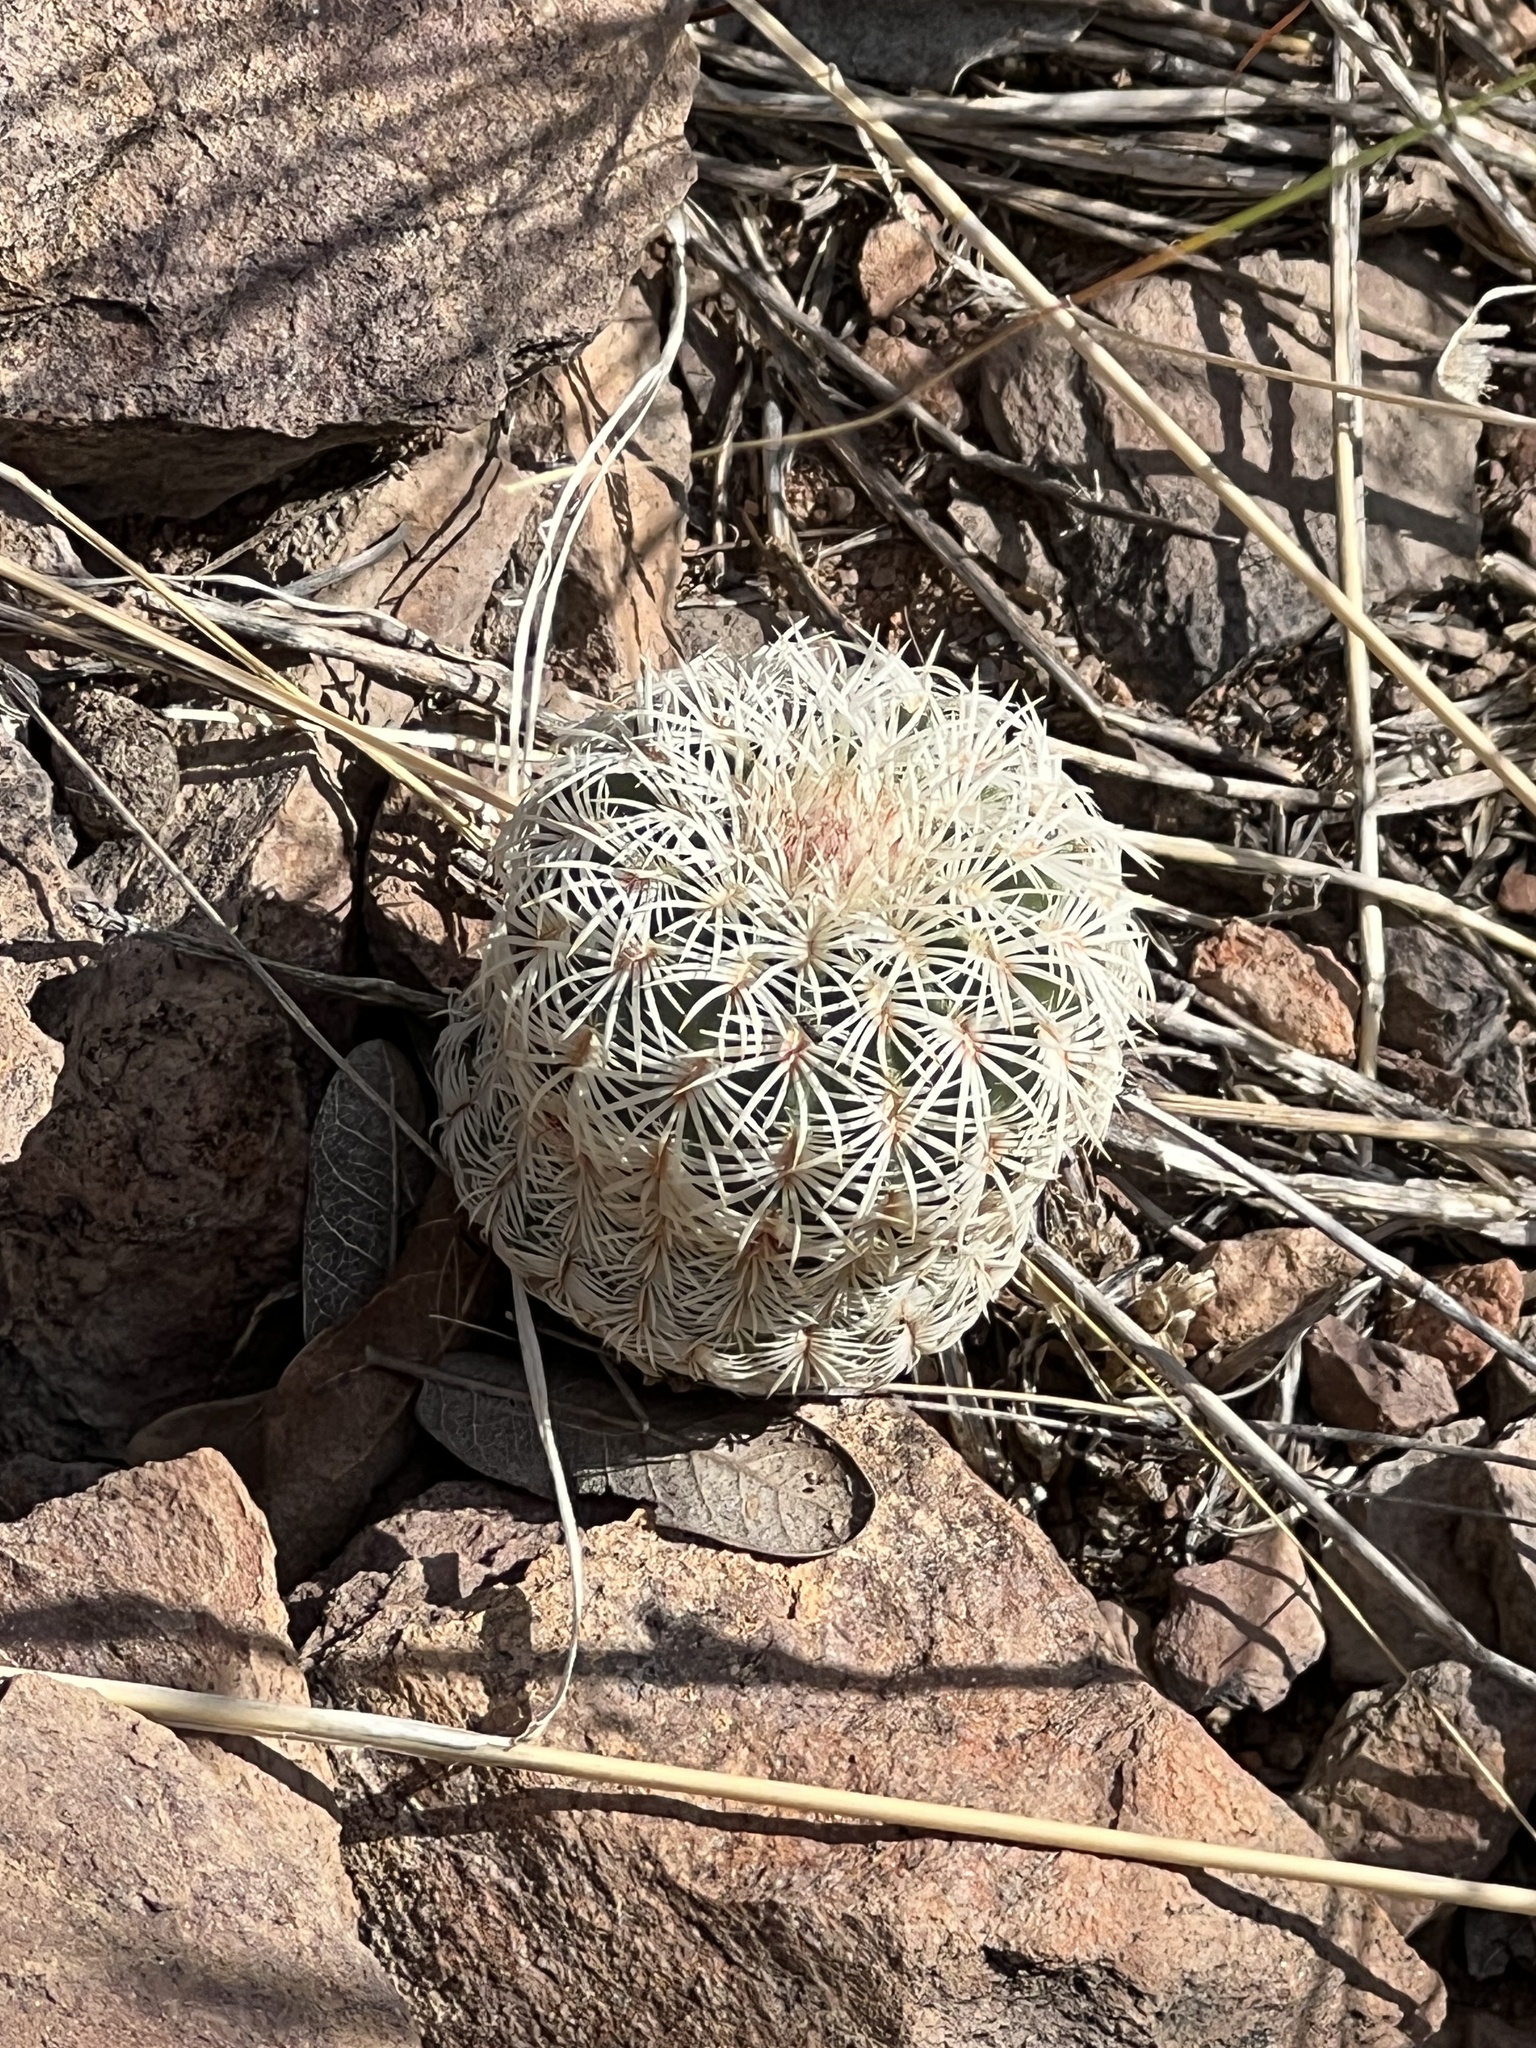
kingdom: Plantae
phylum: Tracheophyta
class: Magnoliopsida
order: Caryophyllales
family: Cactaceae
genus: Echinocereus
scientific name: Echinocereus rigidissimus
